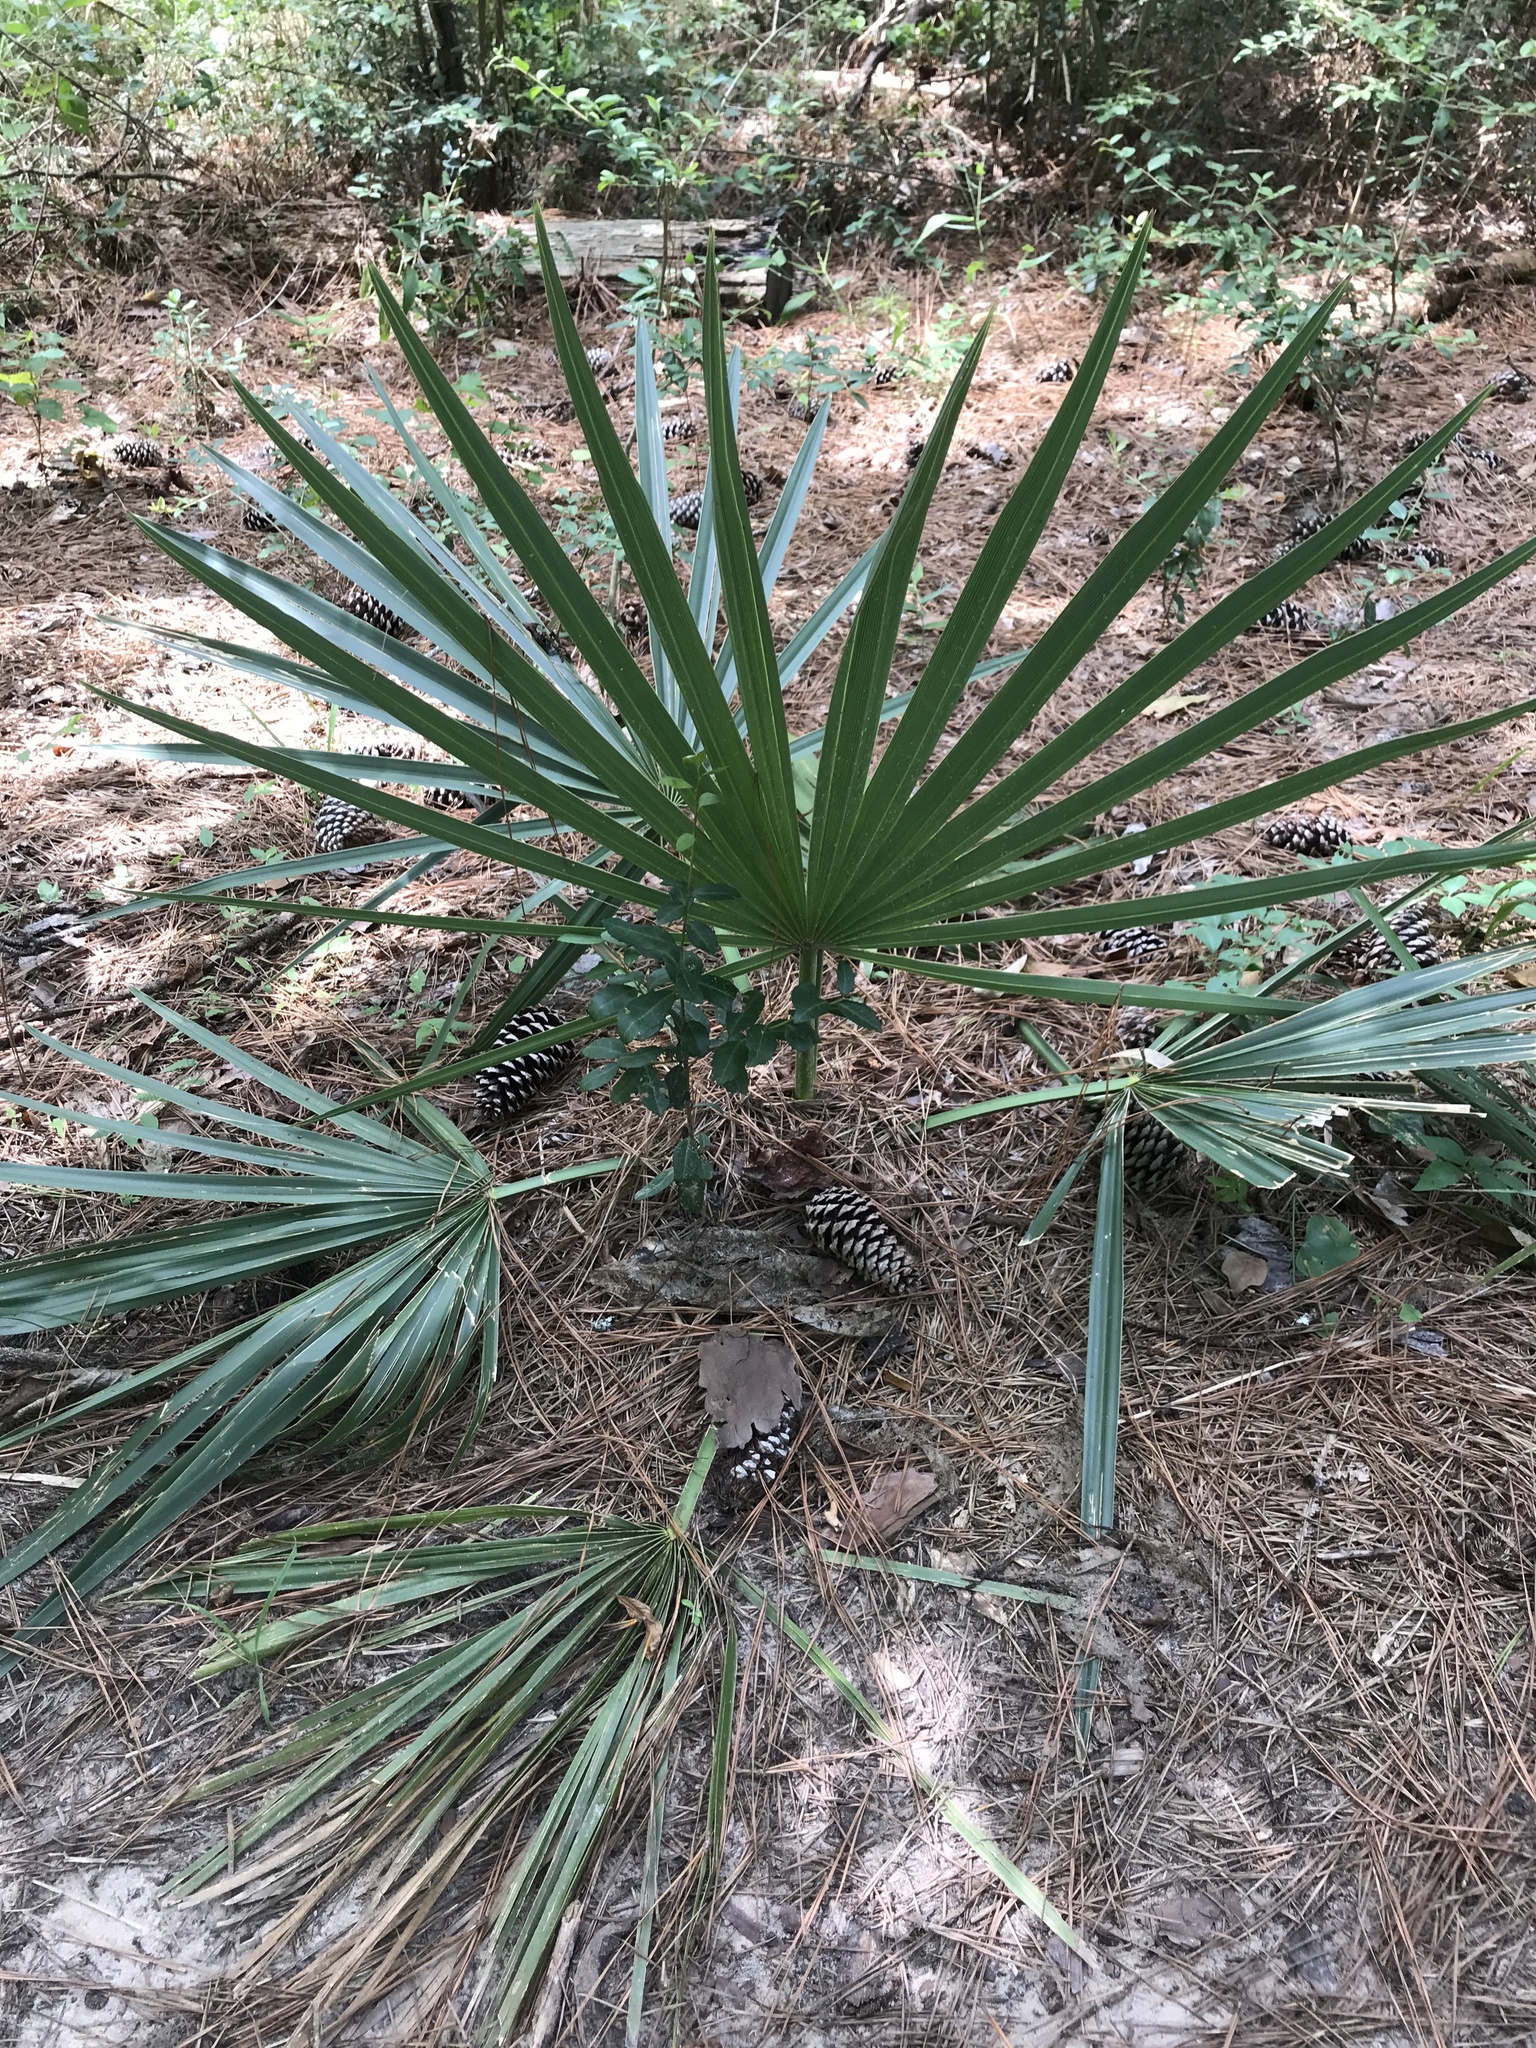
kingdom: Plantae
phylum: Tracheophyta
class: Liliopsida
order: Arecales
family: Arecaceae
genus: Sabal
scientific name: Sabal minor
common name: Dwarf palmetto
